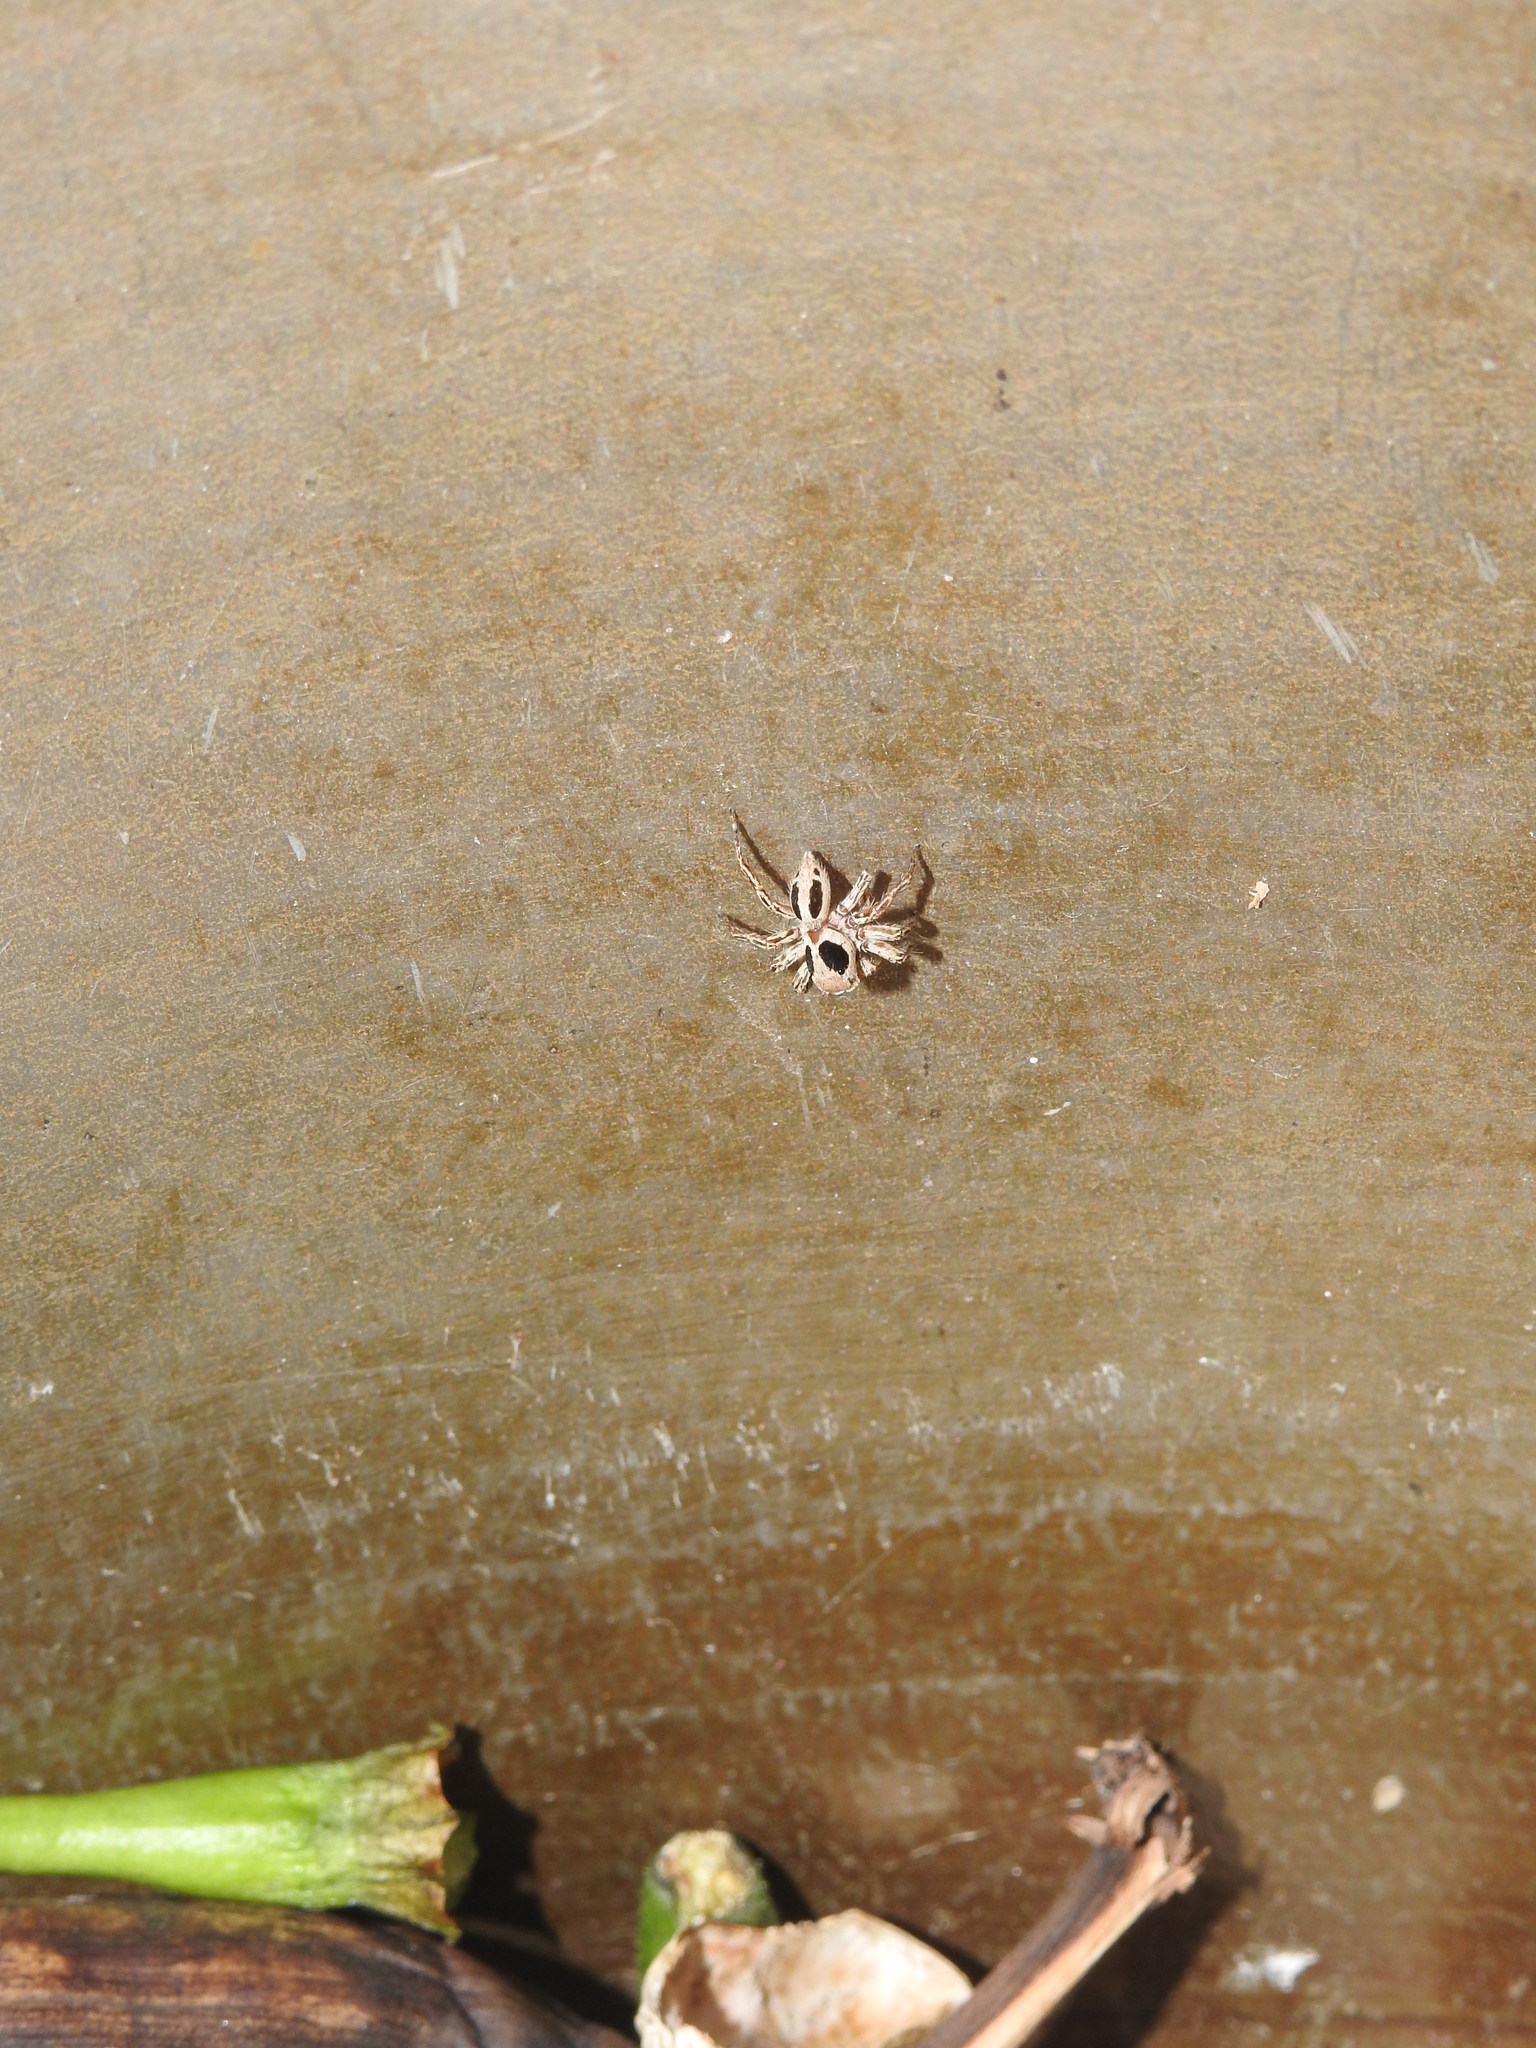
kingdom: Animalia
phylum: Arthropoda
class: Arachnida
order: Araneae
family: Salticidae
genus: Plexippus
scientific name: Plexippus petersi
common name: Jumping spider
